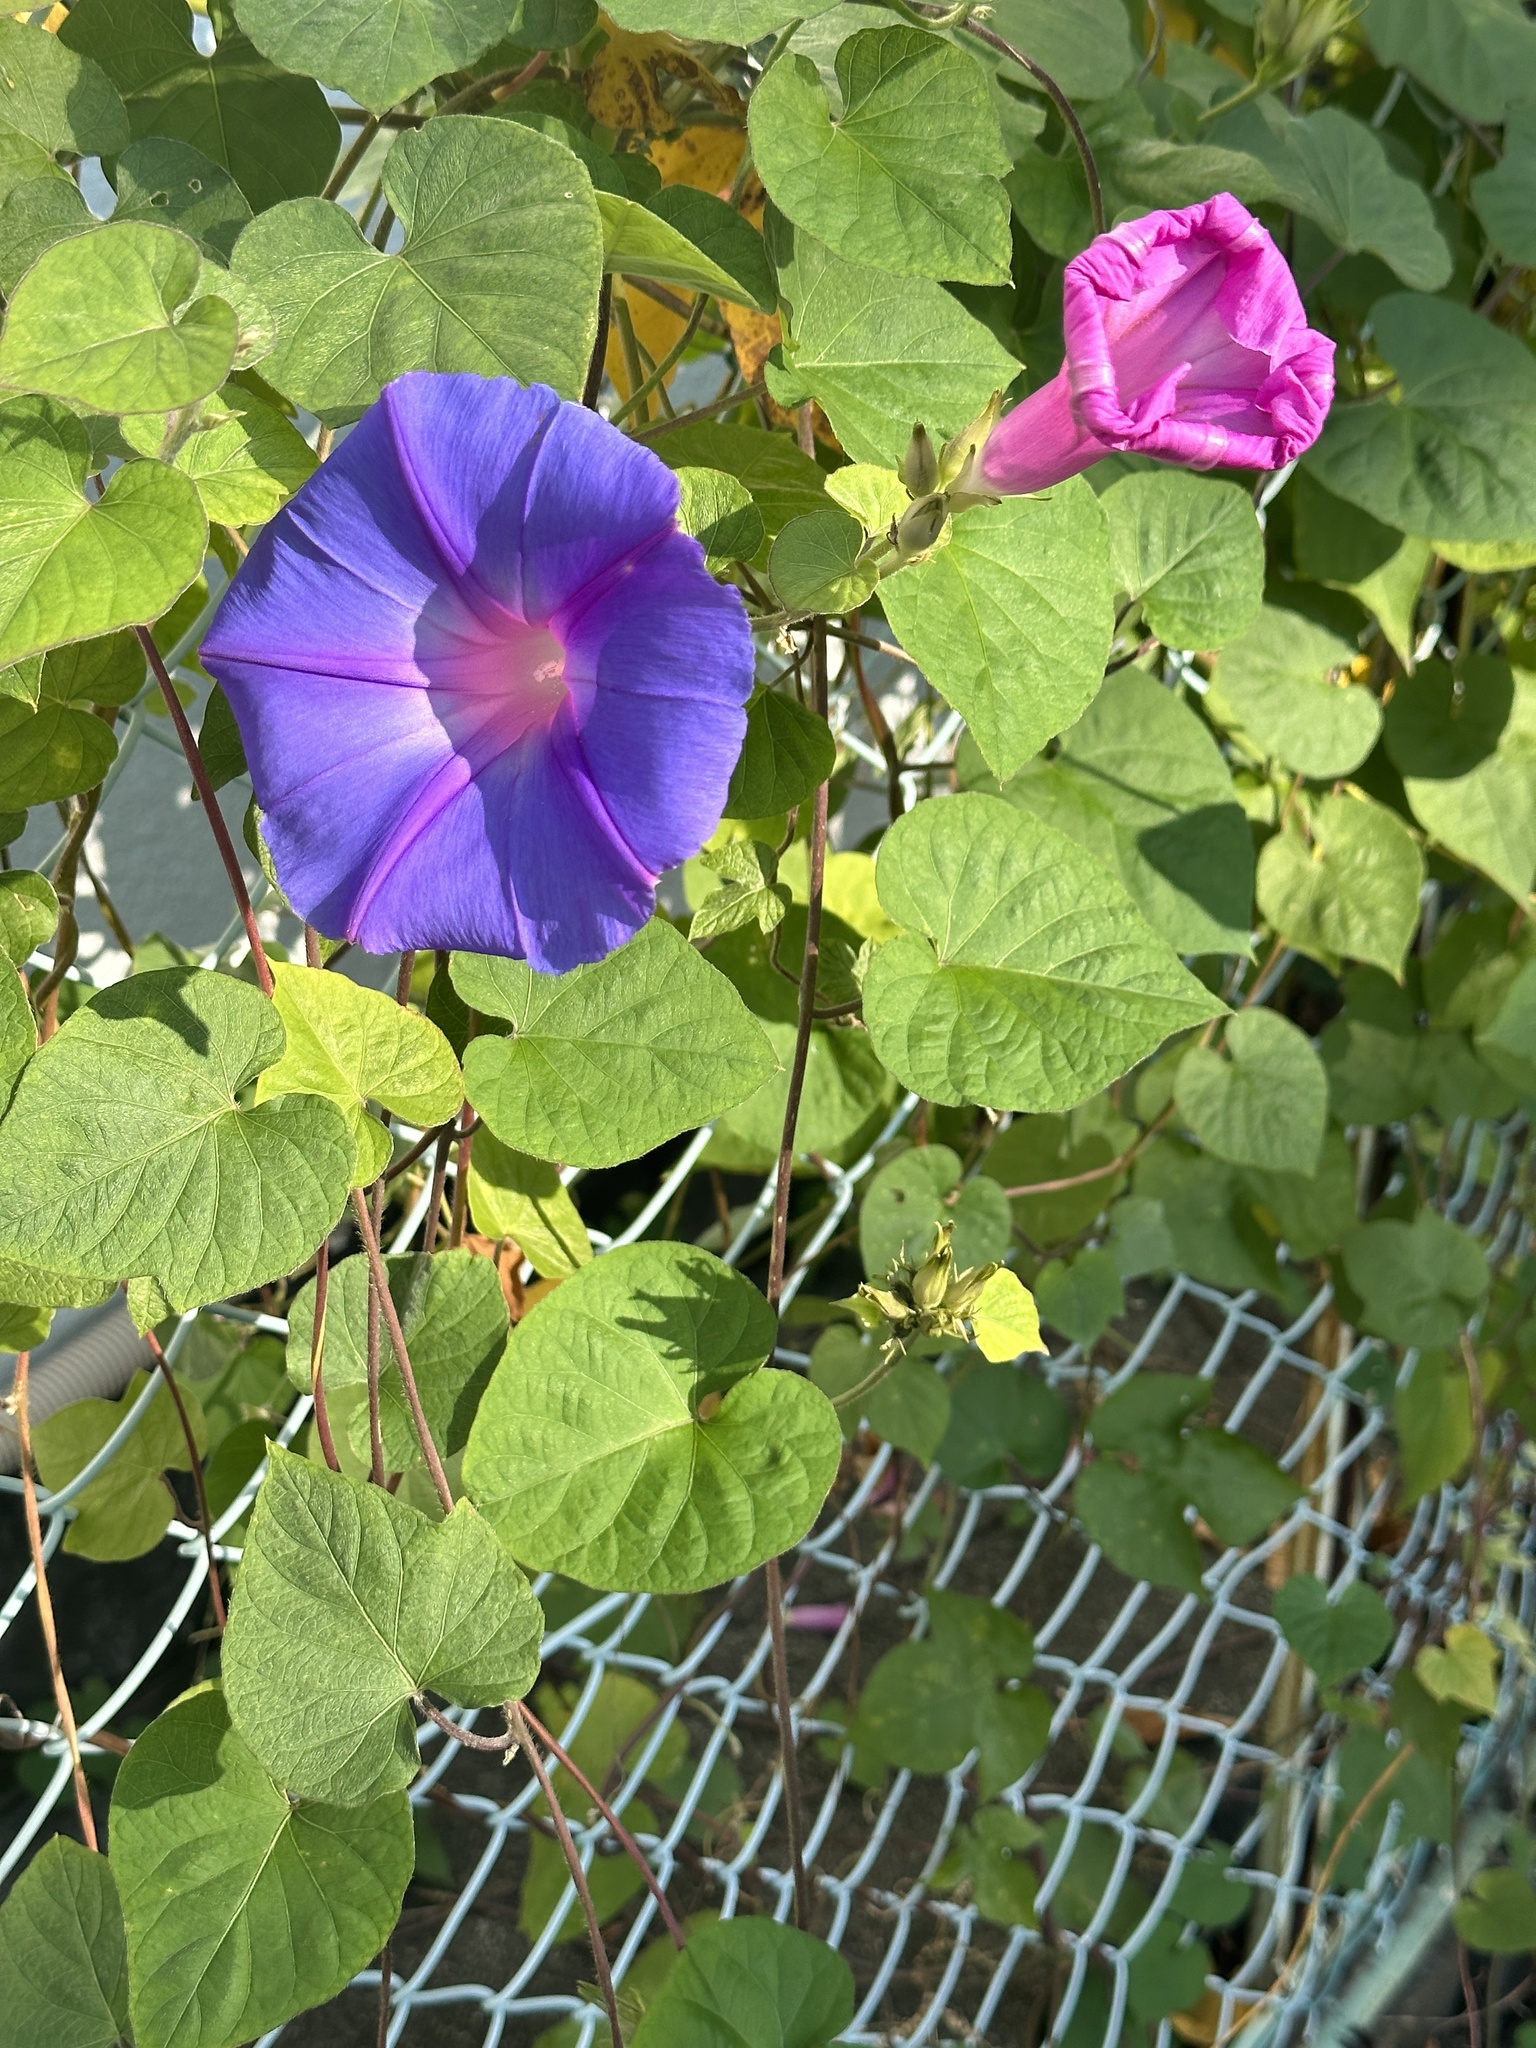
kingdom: Plantae
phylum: Tracheophyta
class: Magnoliopsida
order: Solanales
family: Convolvulaceae
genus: Ipomoea
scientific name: Ipomoea indica
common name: Blue dawnflower
